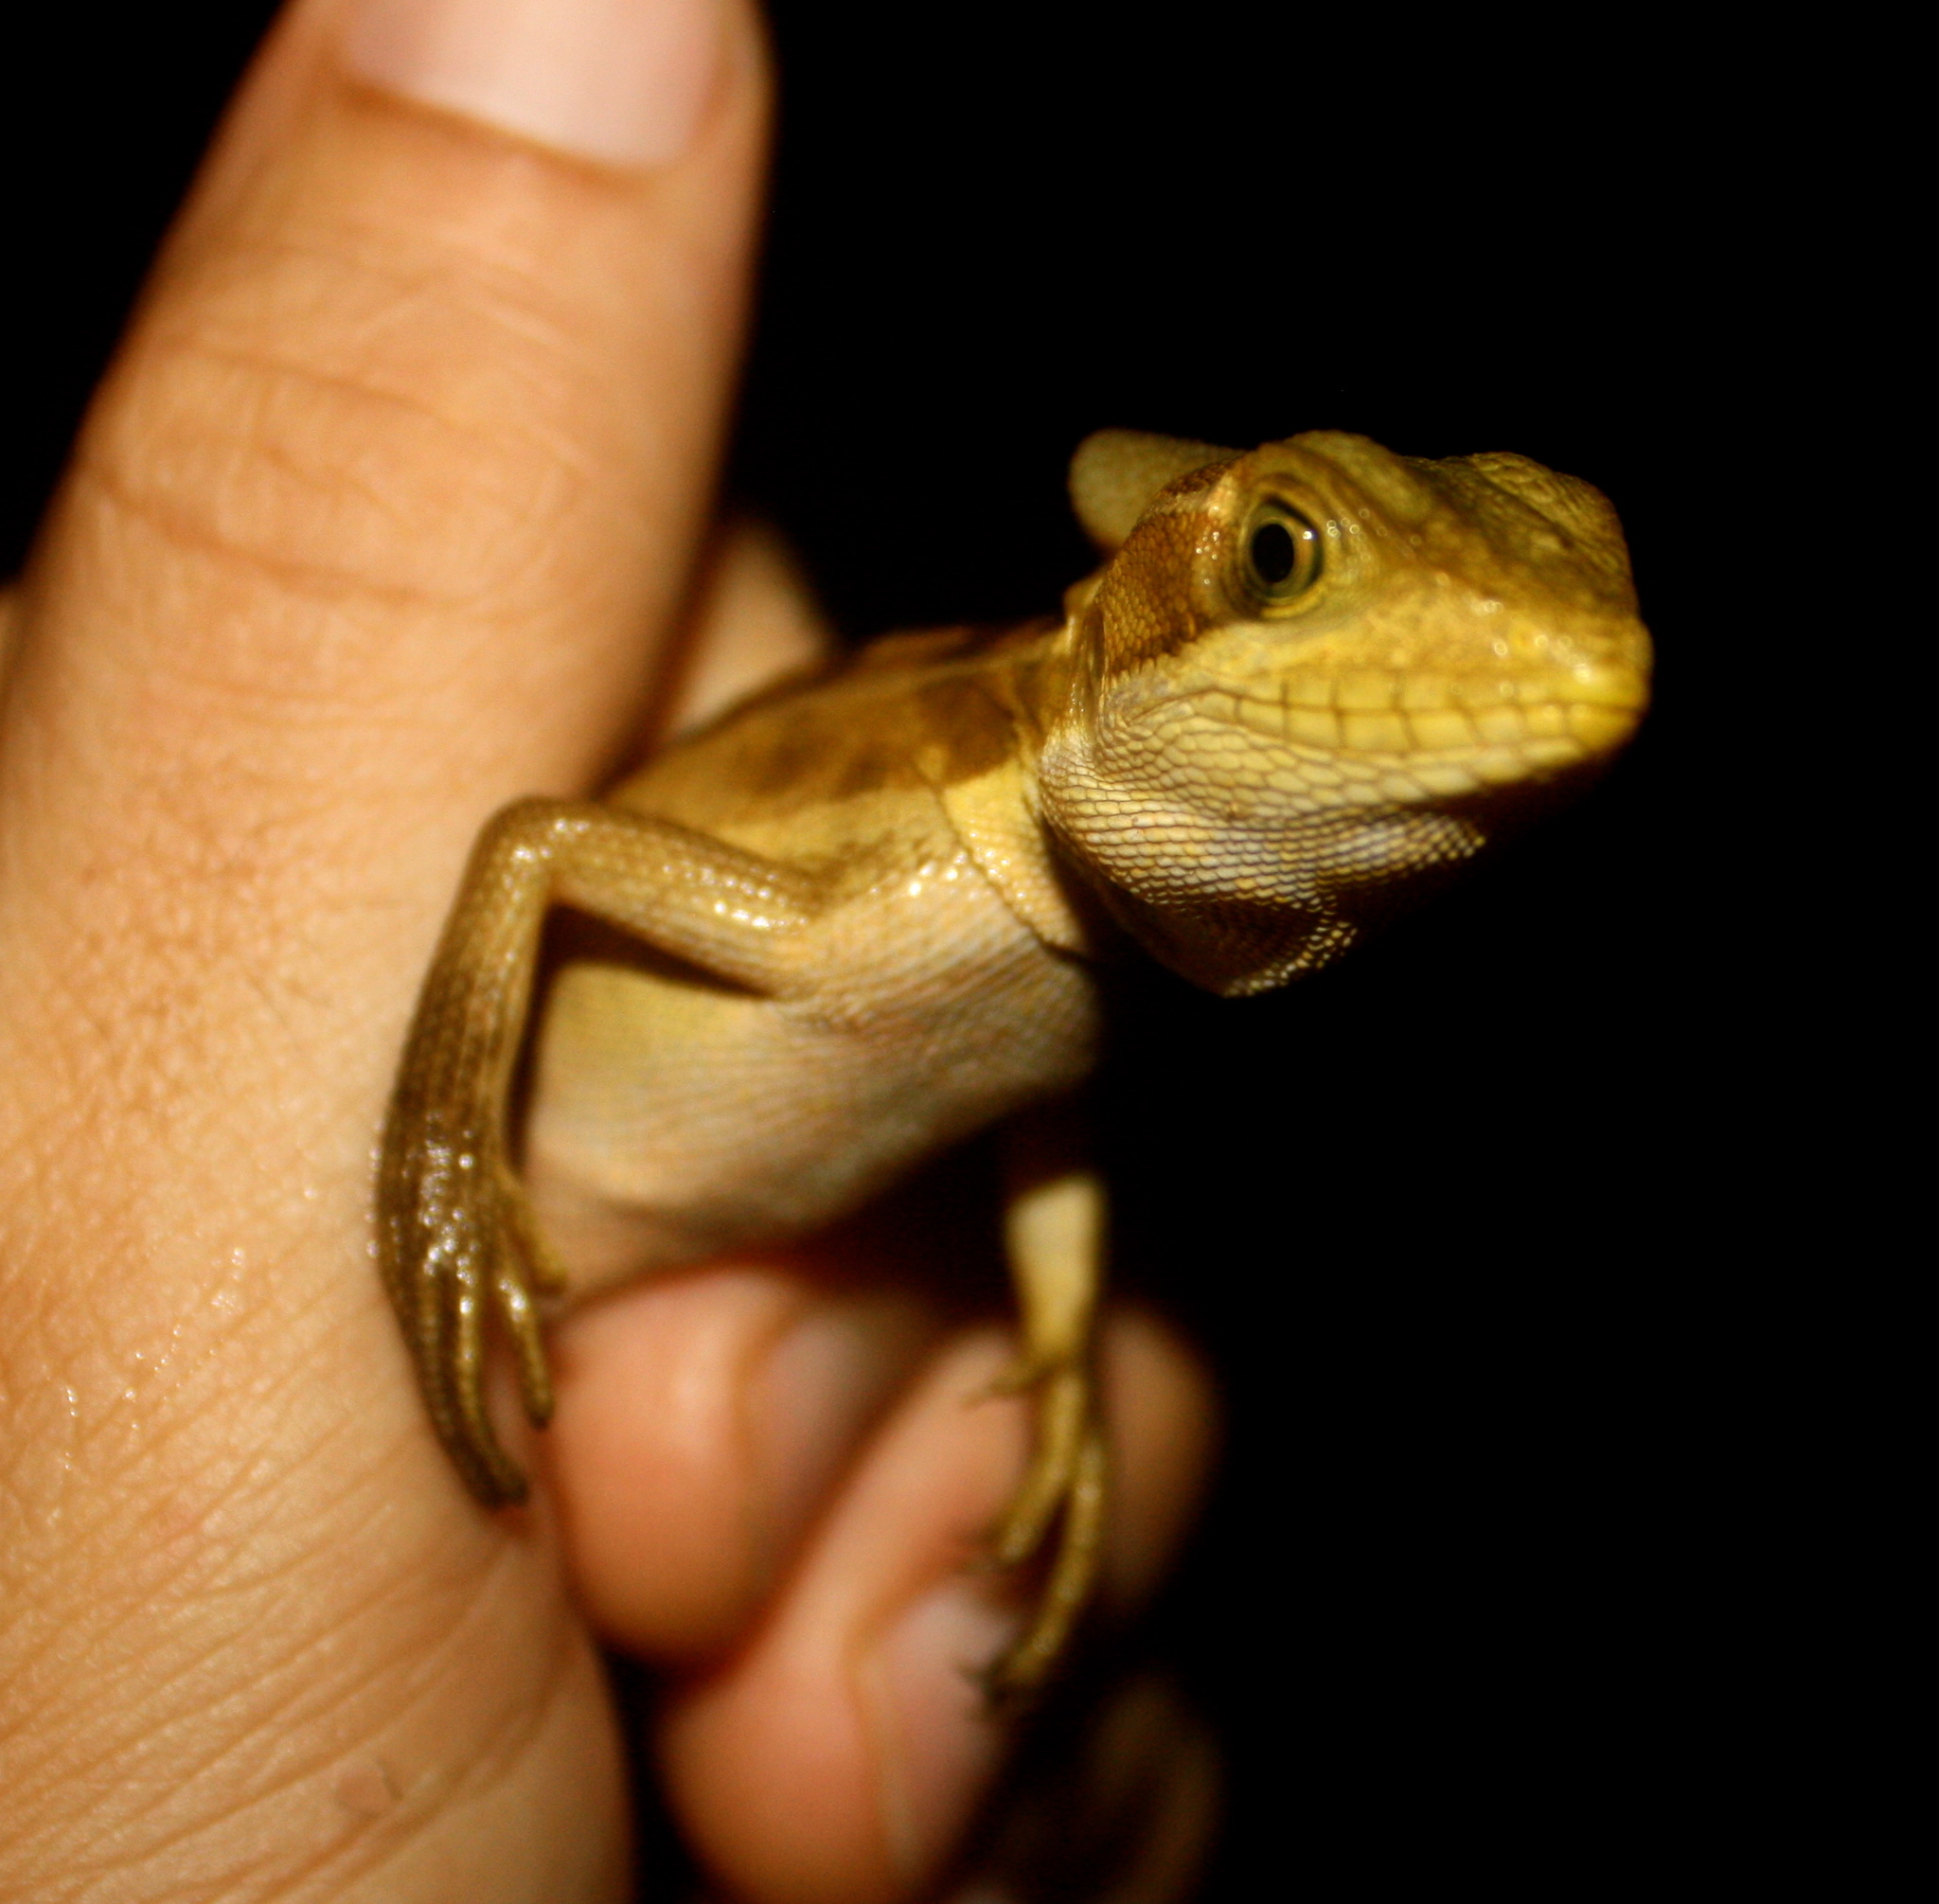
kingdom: Animalia
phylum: Chordata
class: Squamata
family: Corytophanidae
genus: Basiliscus
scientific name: Basiliscus vittatus
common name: Brown basilisk
